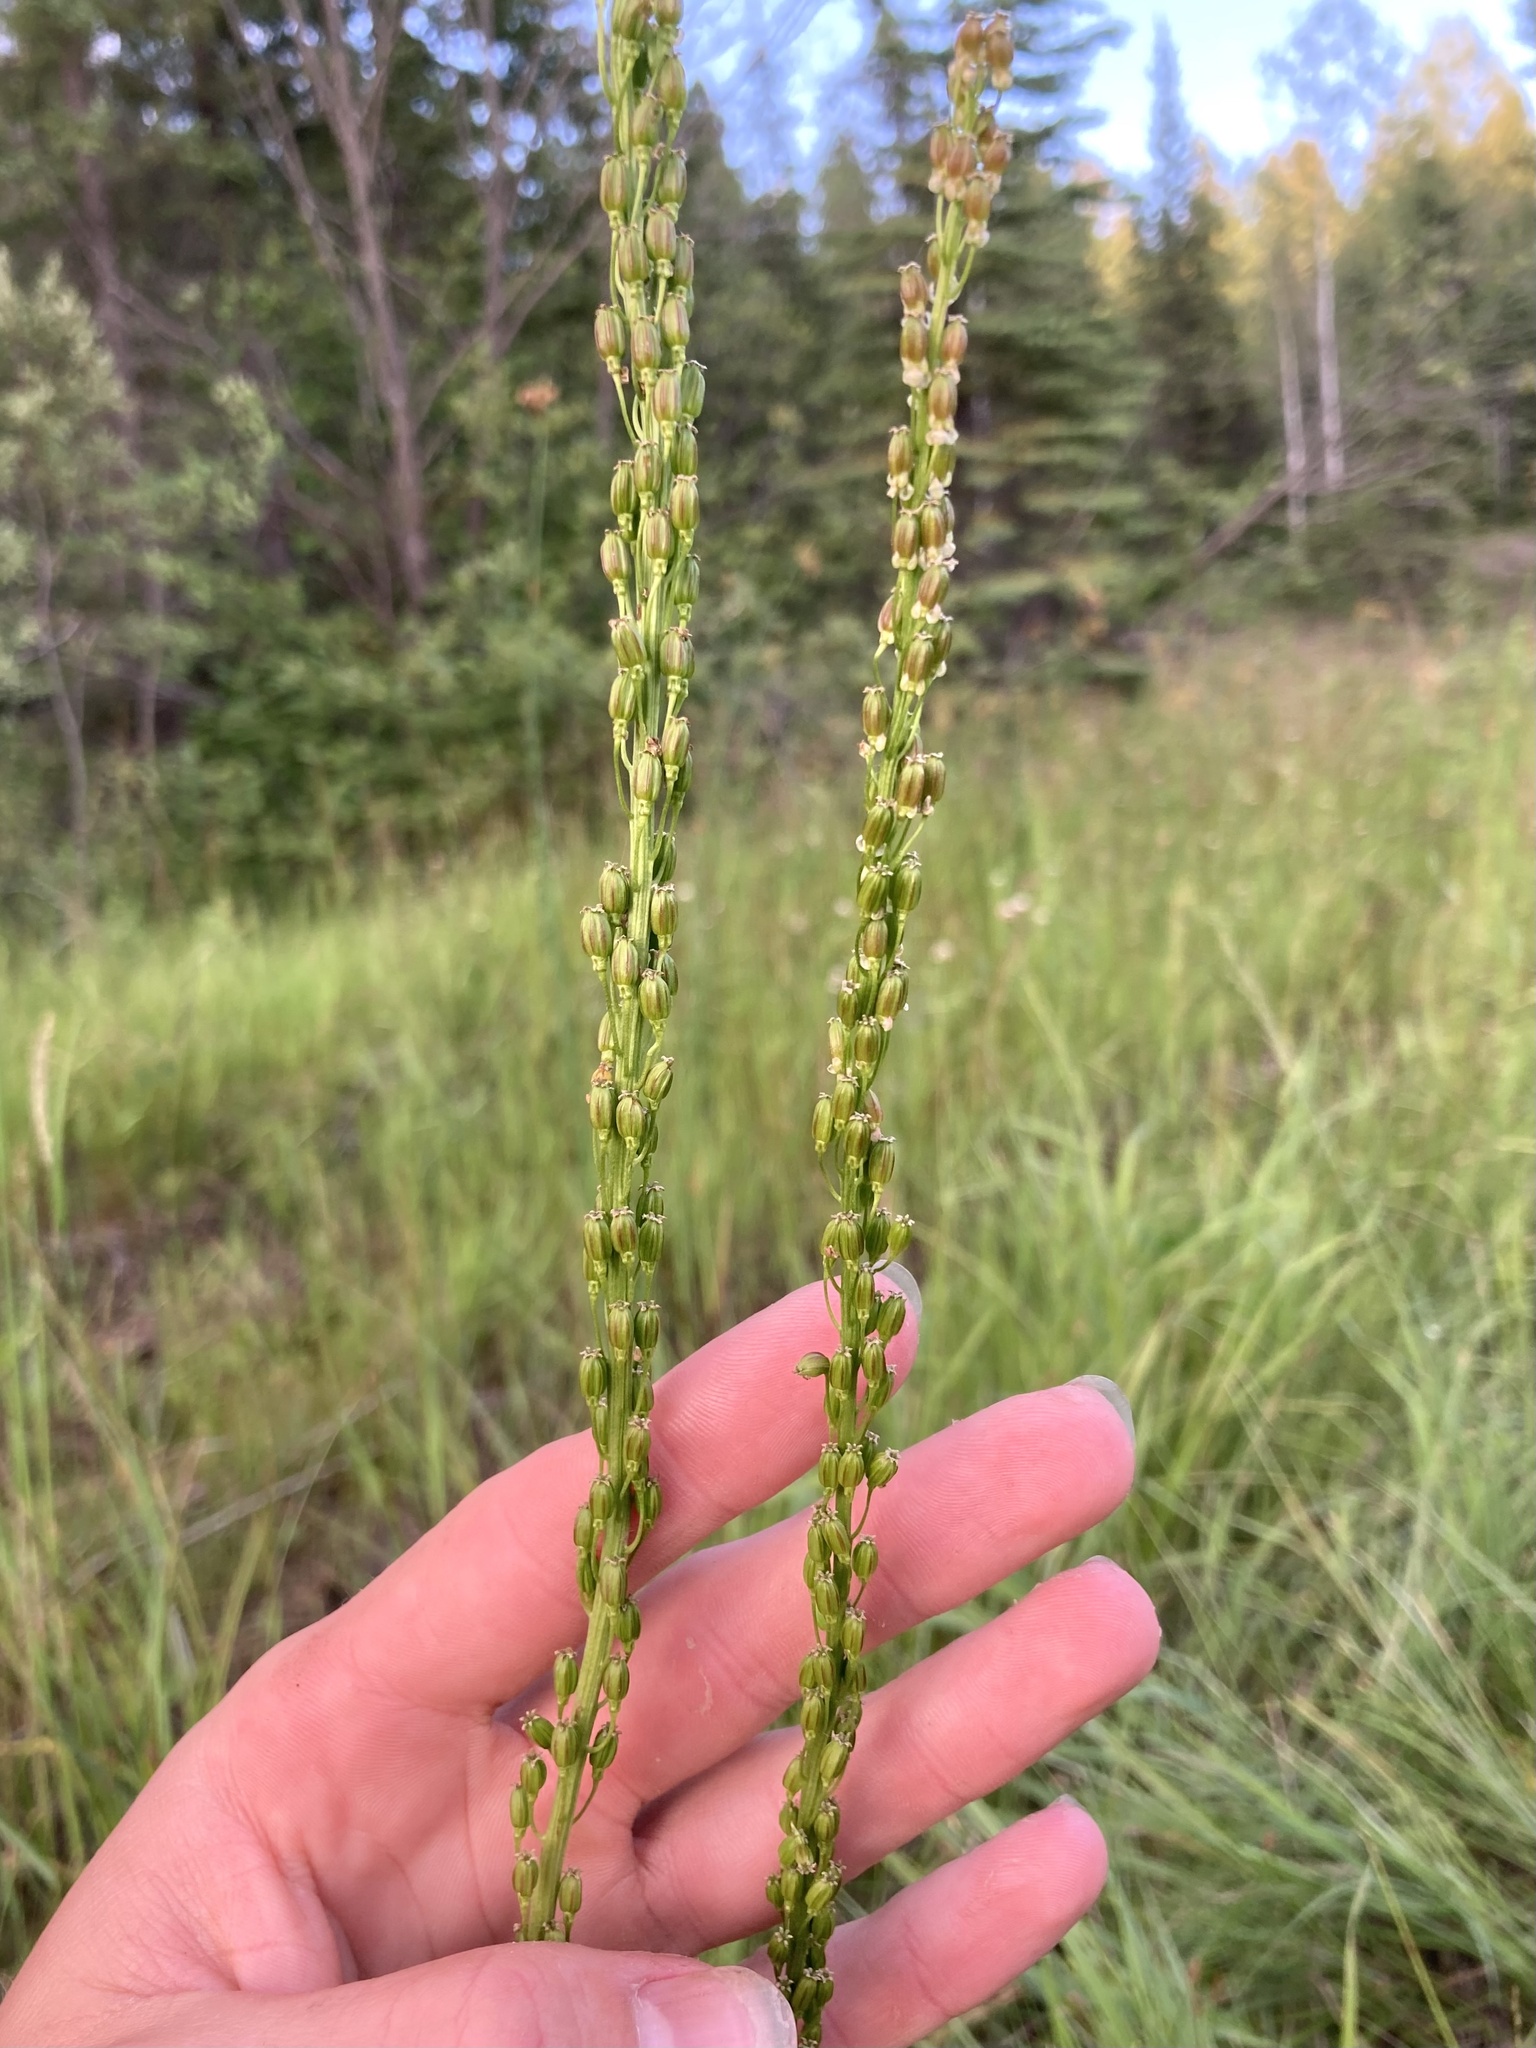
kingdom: Plantae
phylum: Tracheophyta
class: Liliopsida
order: Alismatales
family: Juncaginaceae
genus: Triglochin
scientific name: Triglochin maritima
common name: Sea arrowgrass
